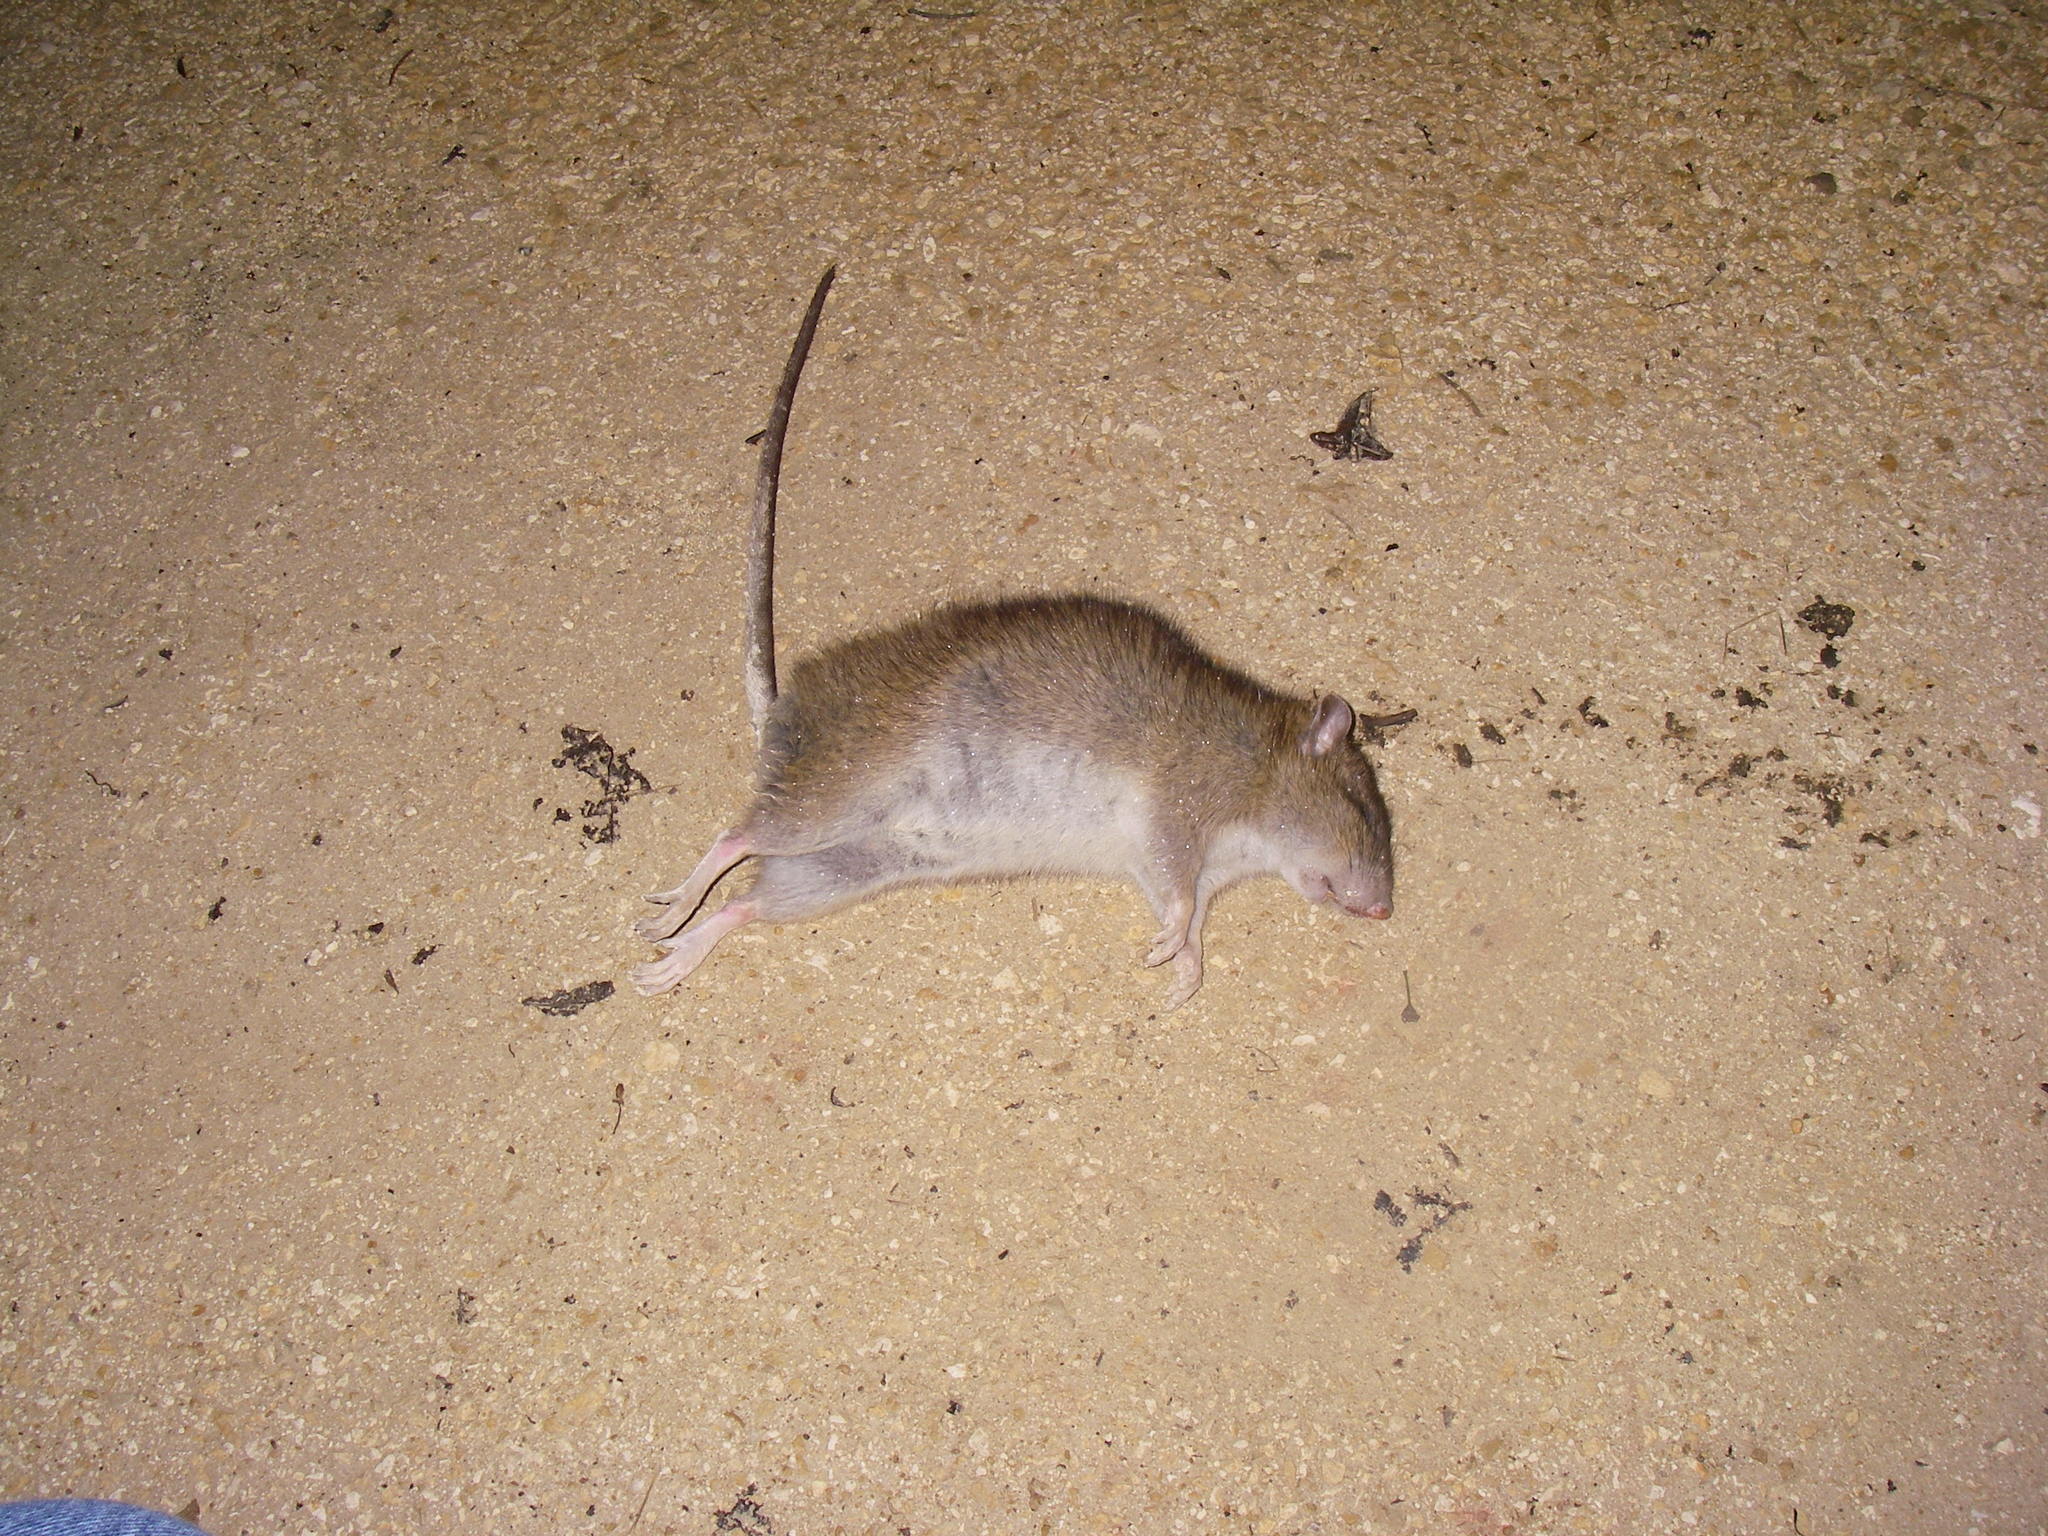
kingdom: Animalia
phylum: Chordata
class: Mammalia
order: Rodentia
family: Muridae
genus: Rattus
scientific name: Rattus norvegicus
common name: Brown rat
